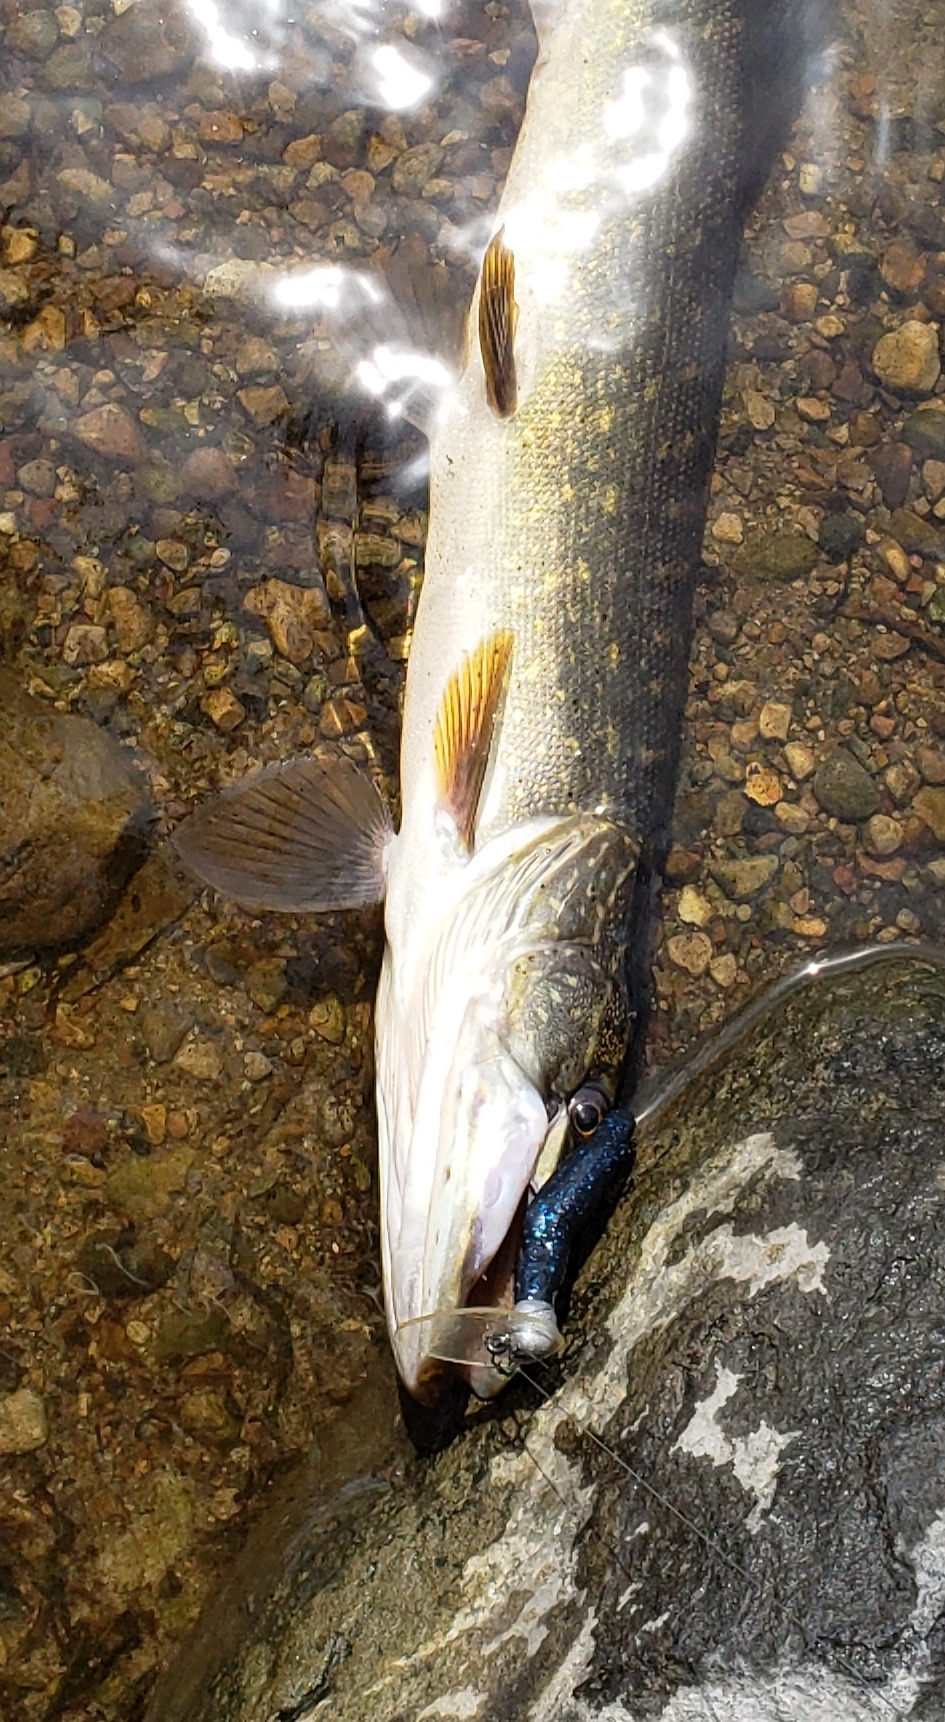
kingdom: Animalia
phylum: Chordata
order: Esociformes
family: Esocidae
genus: Esox
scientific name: Esox lucius
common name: Northern pike
